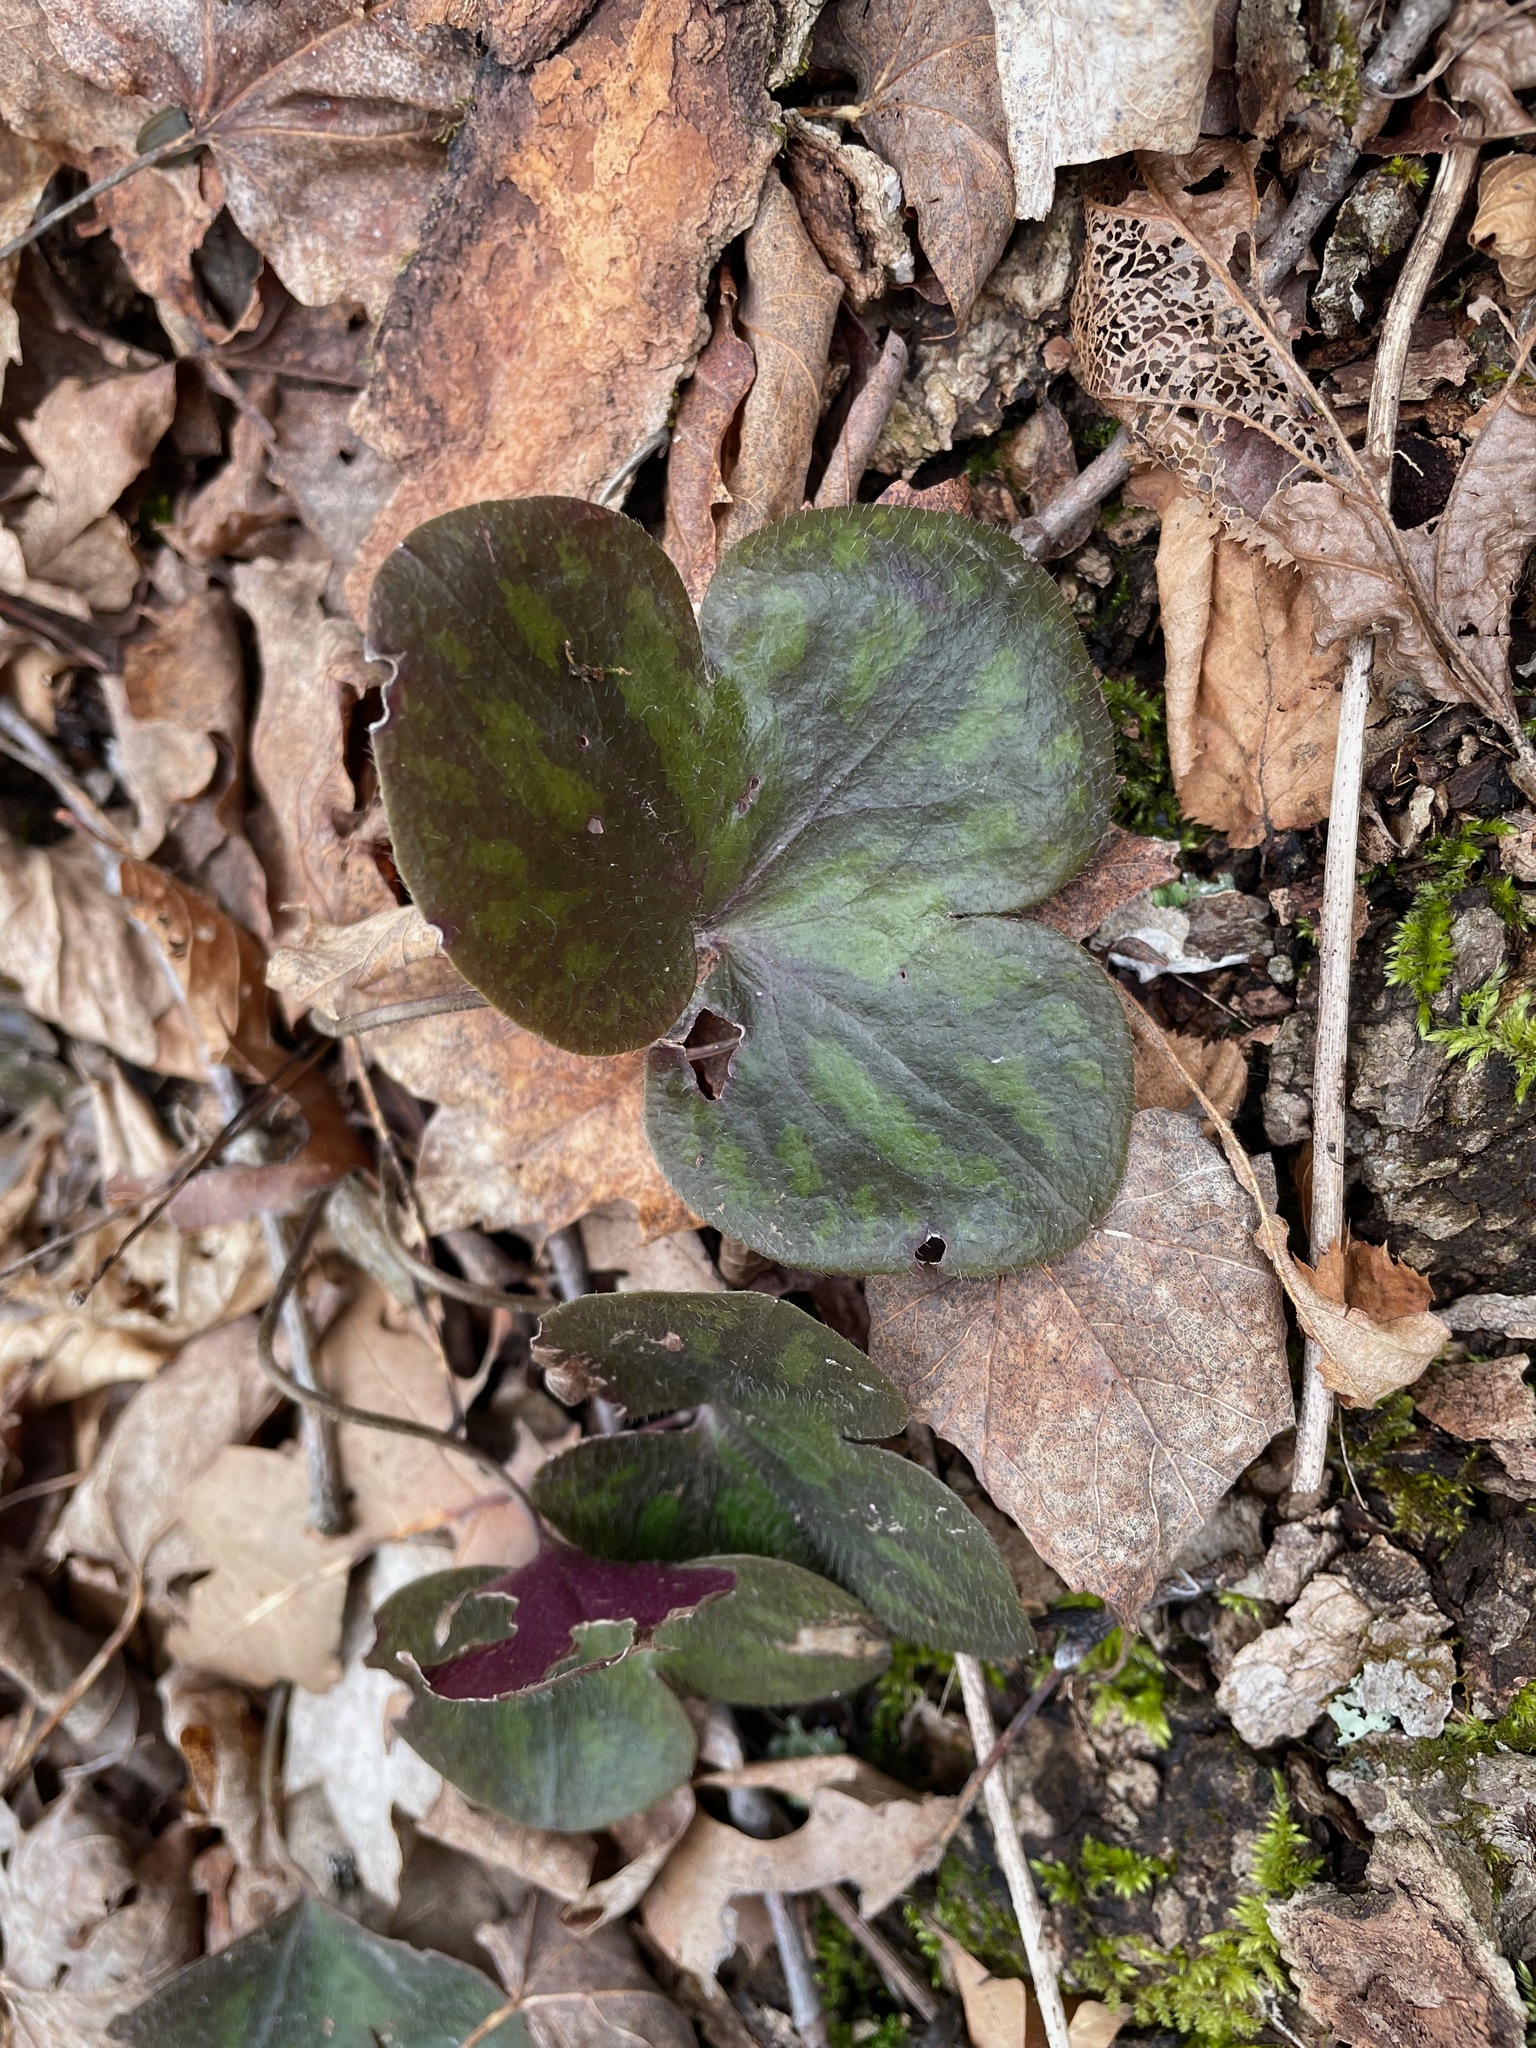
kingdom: Plantae
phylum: Tracheophyta
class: Magnoliopsida
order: Ranunculales
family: Ranunculaceae
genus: Hepatica
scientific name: Hepatica americana
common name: American hepatica
